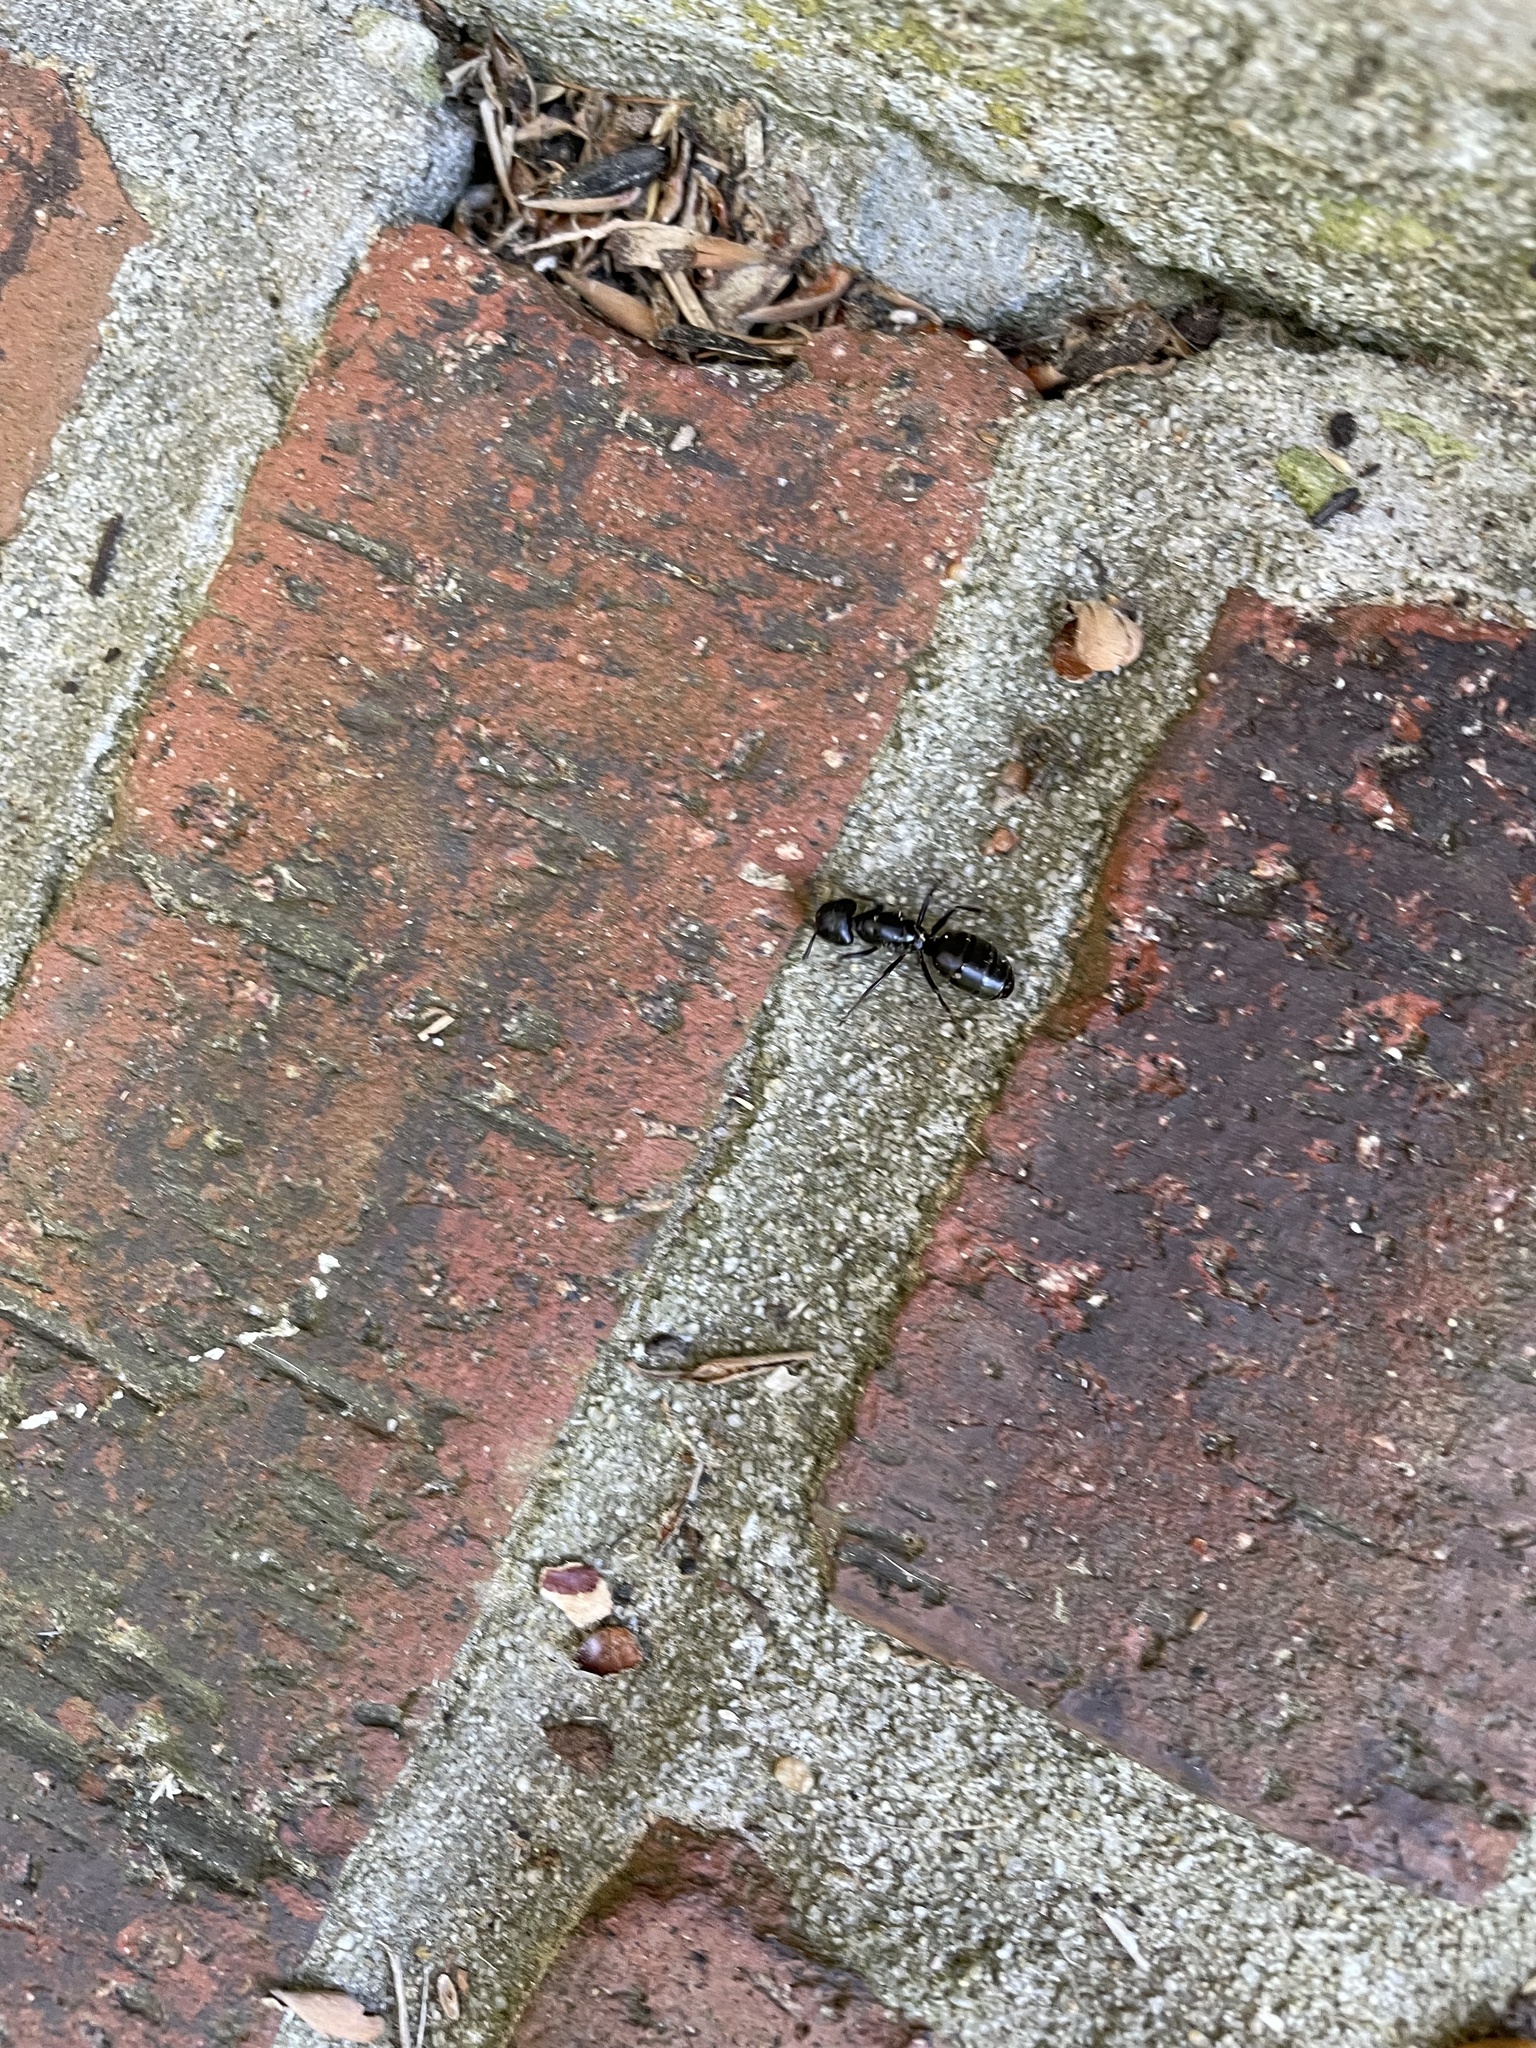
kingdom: Animalia
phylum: Arthropoda
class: Insecta
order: Hymenoptera
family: Formicidae
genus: Camponotus
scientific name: Camponotus pennsylvanicus
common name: Black carpenter ant
